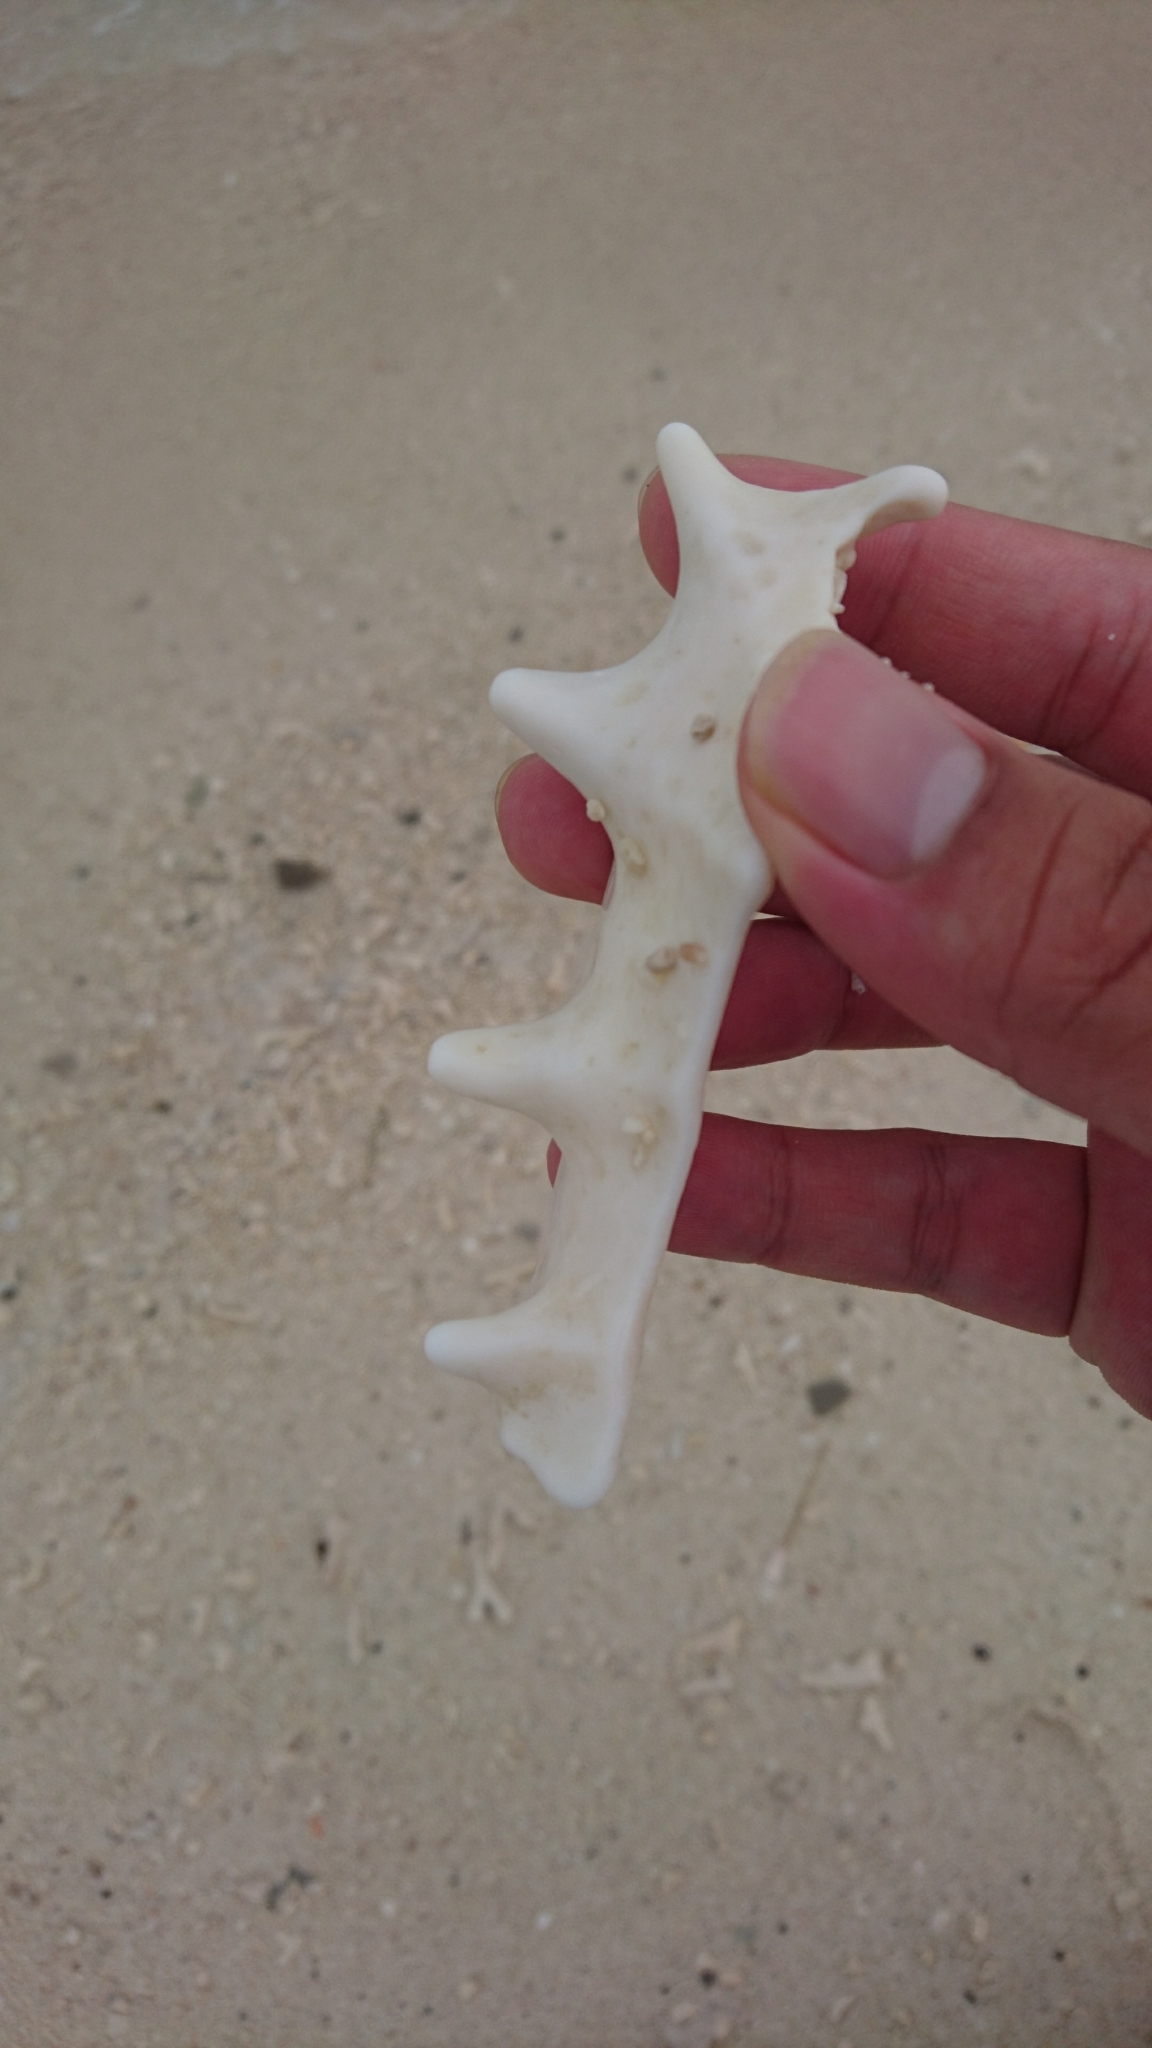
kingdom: Animalia
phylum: Mollusca
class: Gastropoda
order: Littorinimorpha
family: Strombidae
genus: Lambis
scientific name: Lambis
